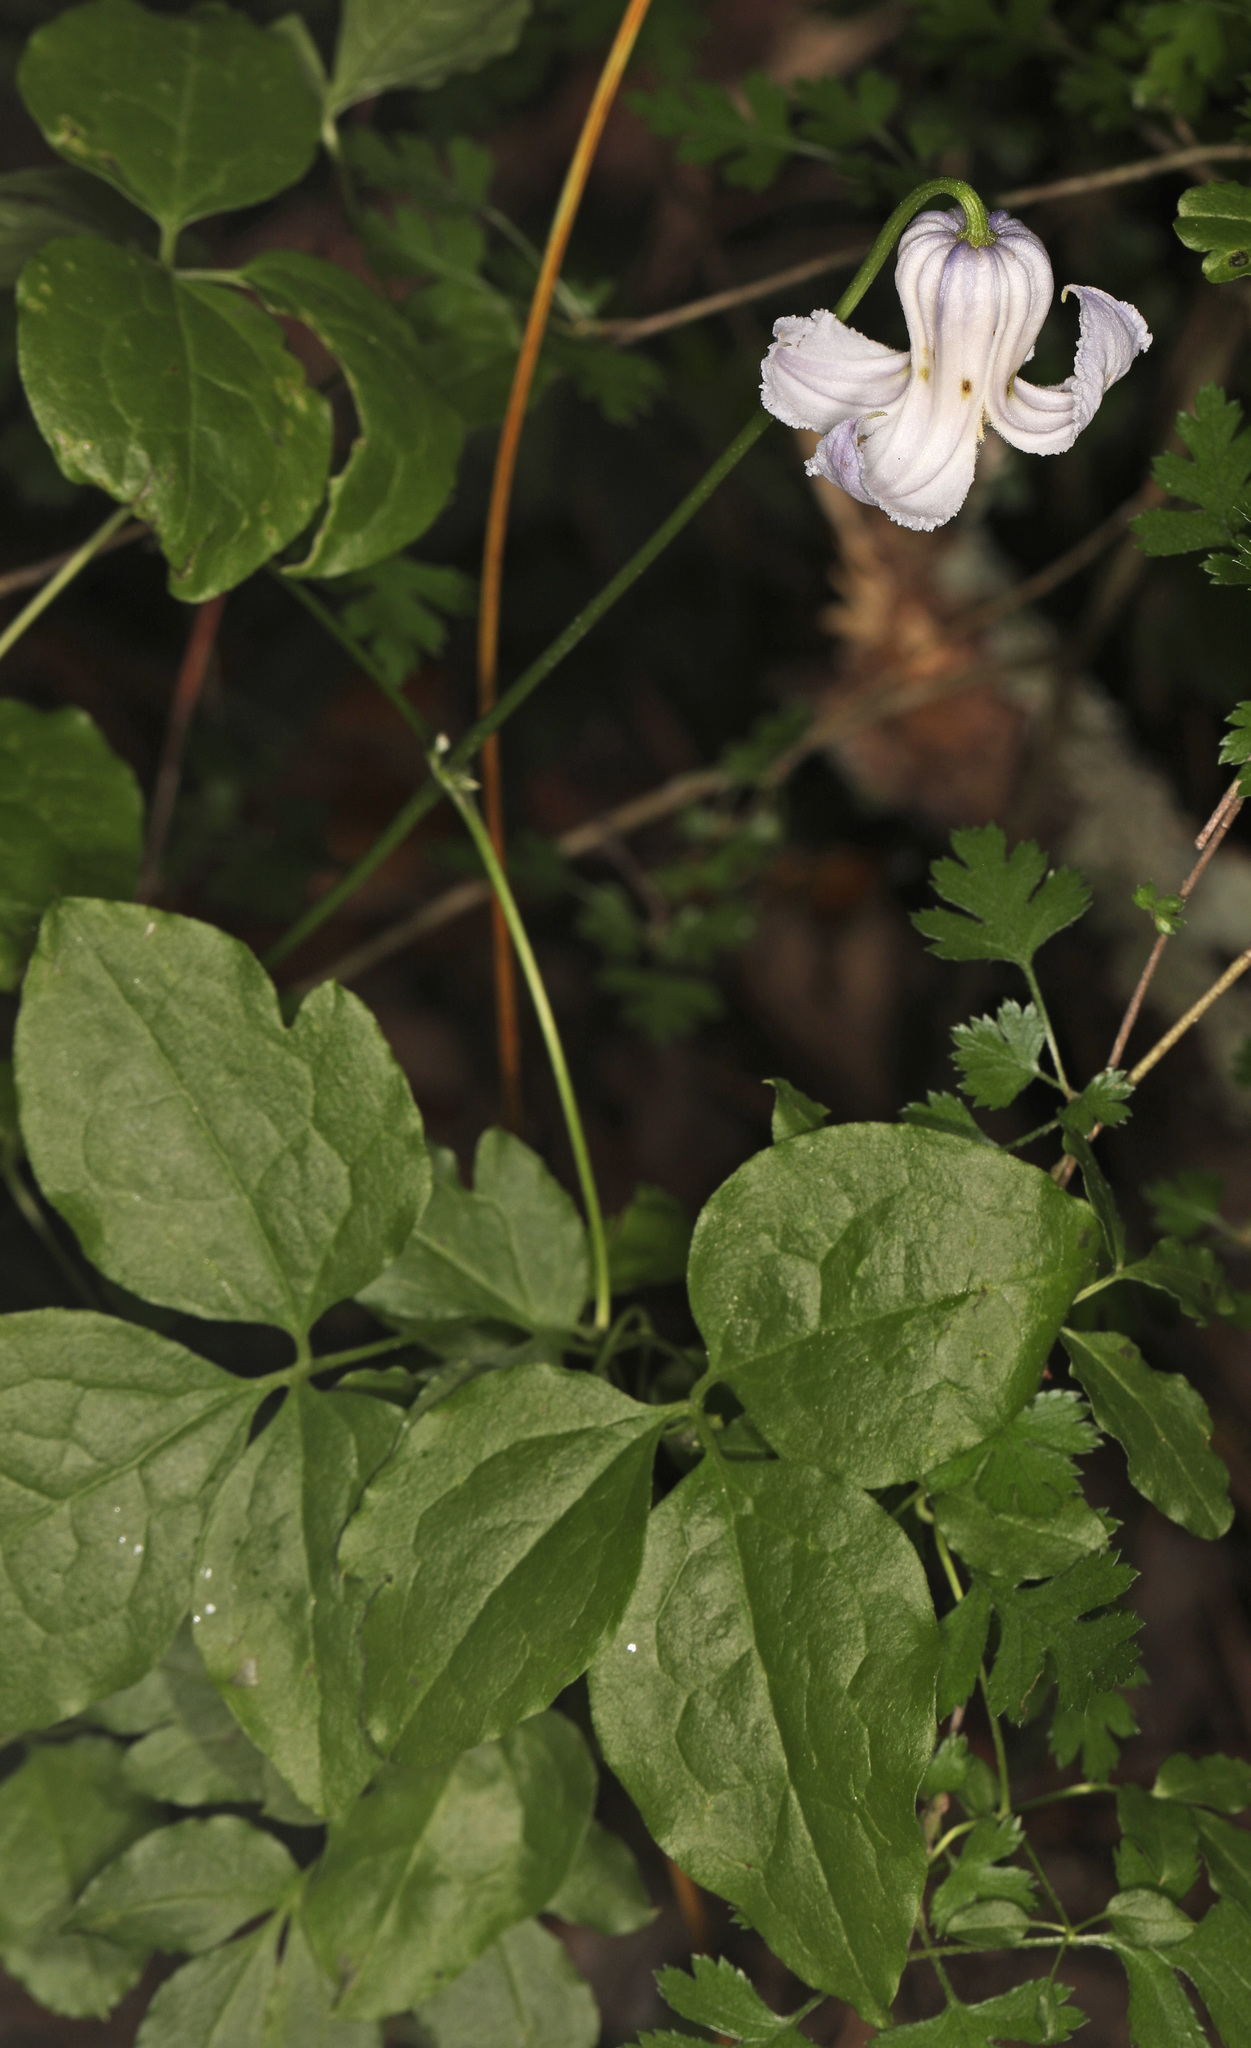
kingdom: Plantae
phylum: Tracheophyta
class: Magnoliopsida
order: Ranunculales
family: Ranunculaceae
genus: Clematis
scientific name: Clematis crispa
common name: Curly clematis
